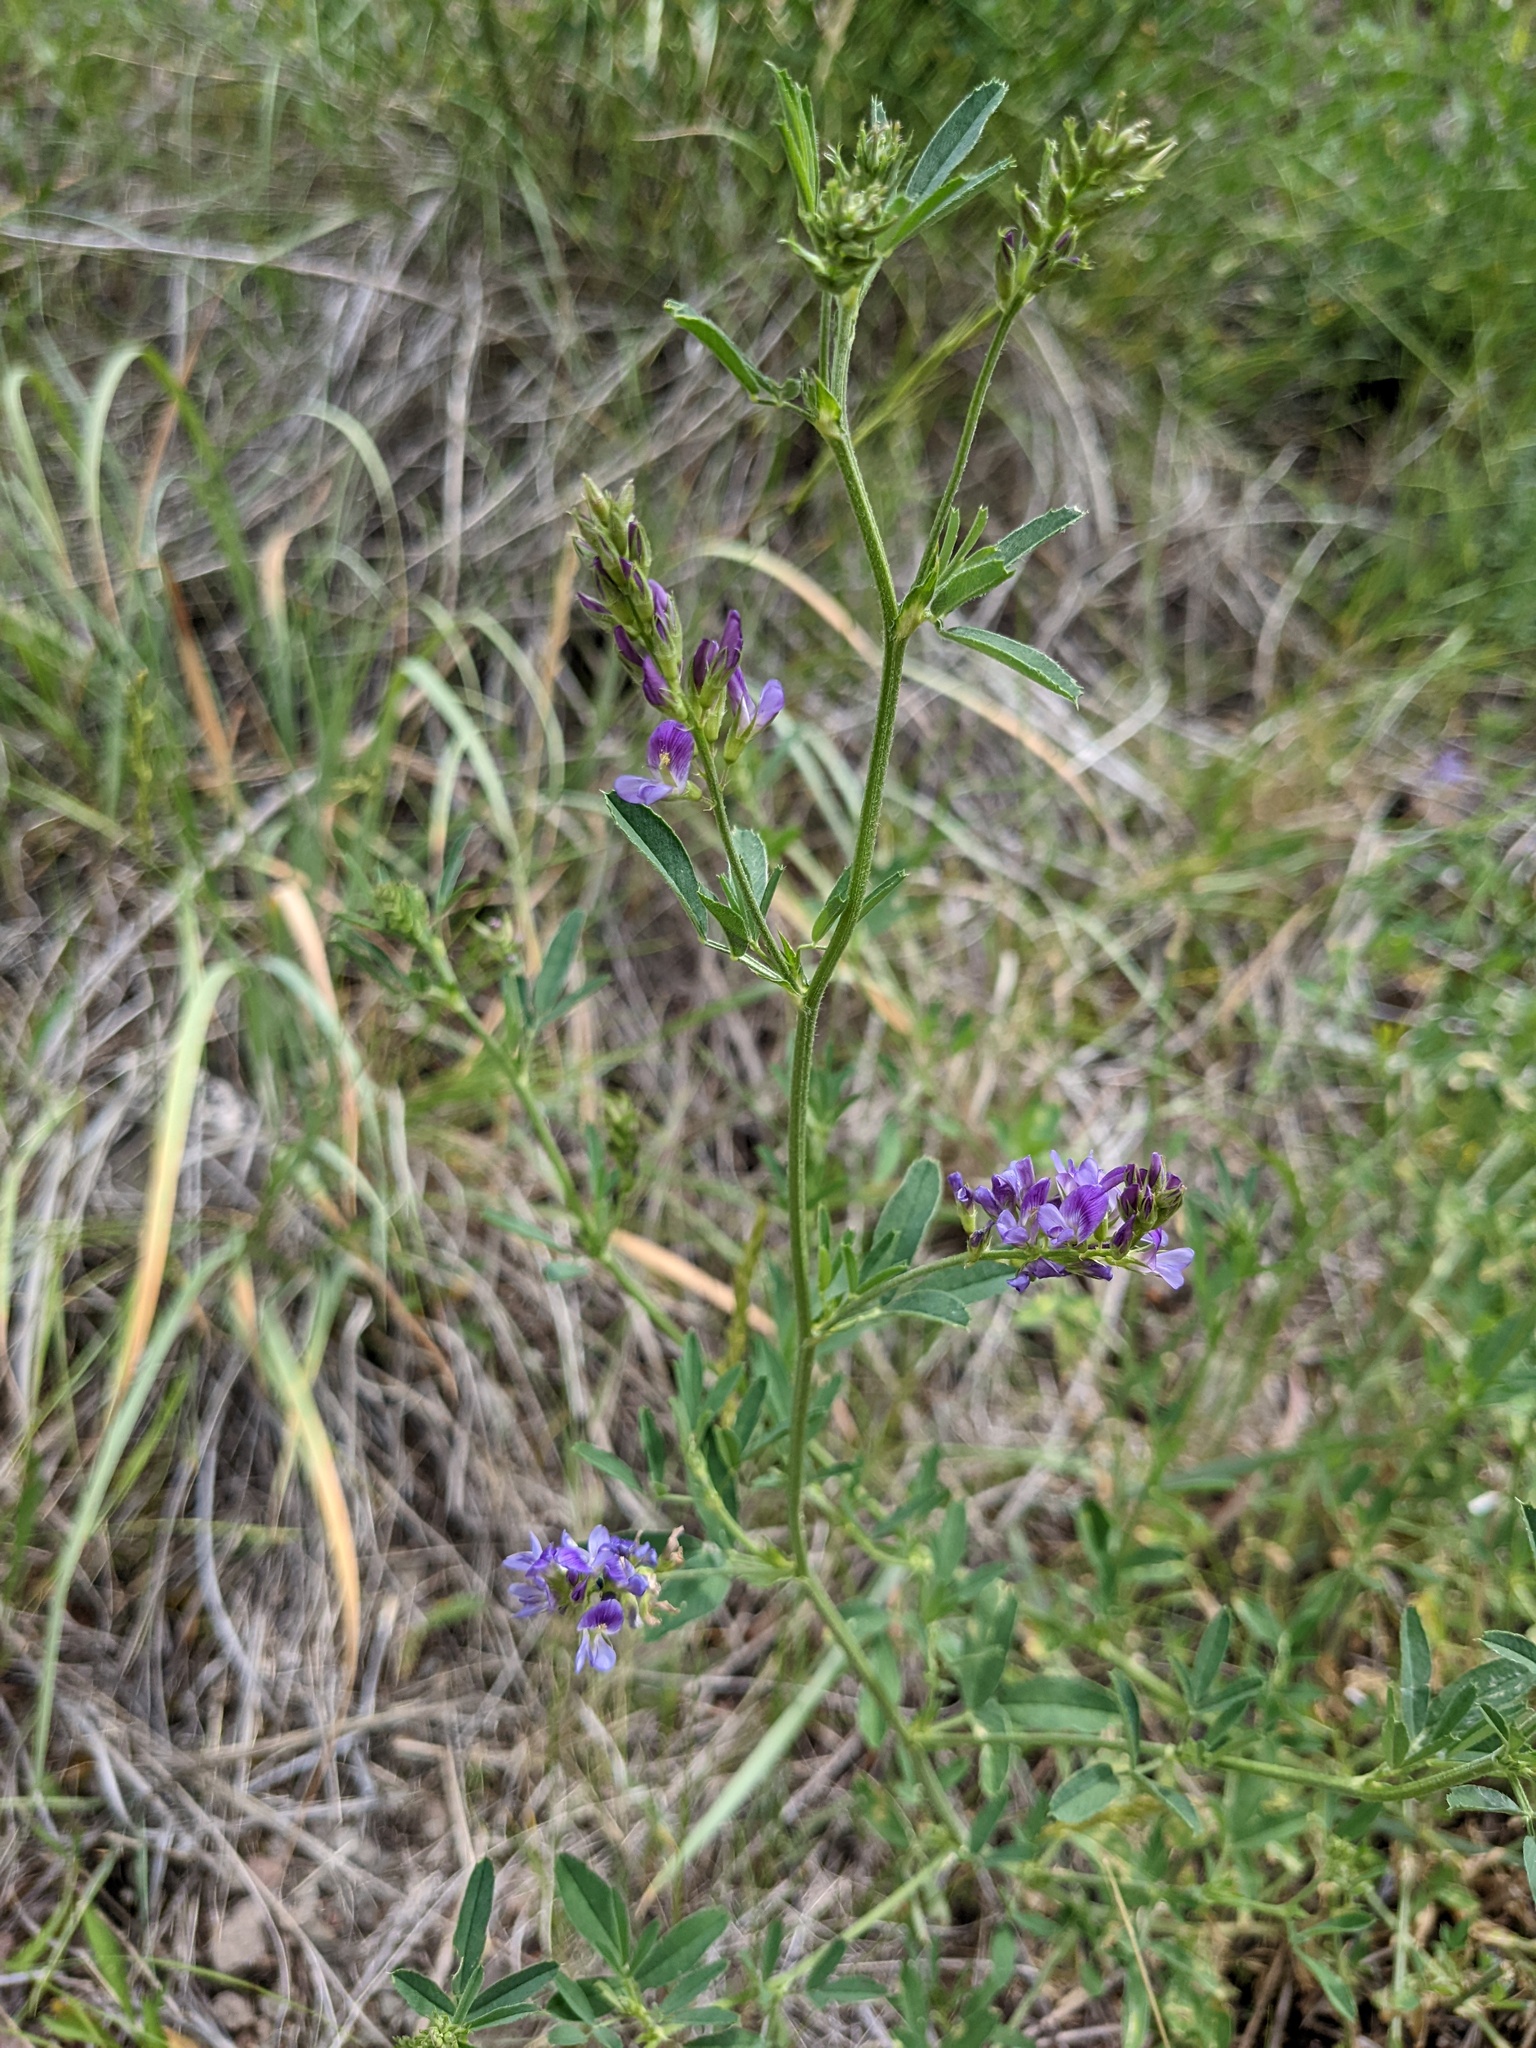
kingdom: Plantae
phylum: Tracheophyta
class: Magnoliopsida
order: Fabales
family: Fabaceae
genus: Medicago
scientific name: Medicago sativa
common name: Alfalfa
